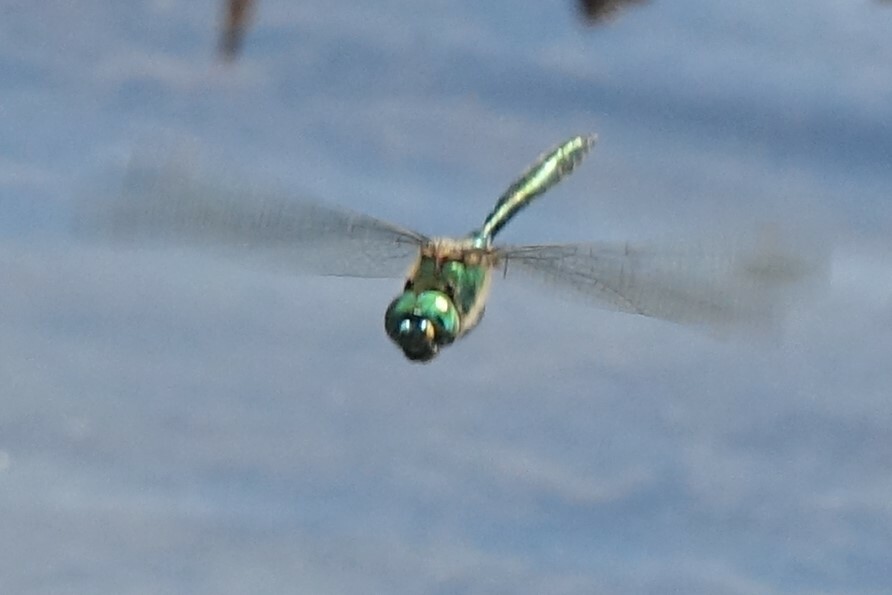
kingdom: Animalia
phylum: Arthropoda
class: Insecta
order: Odonata
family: Corduliidae
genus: Somatochlora
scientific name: Somatochlora metallica
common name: Brilliant emerald
